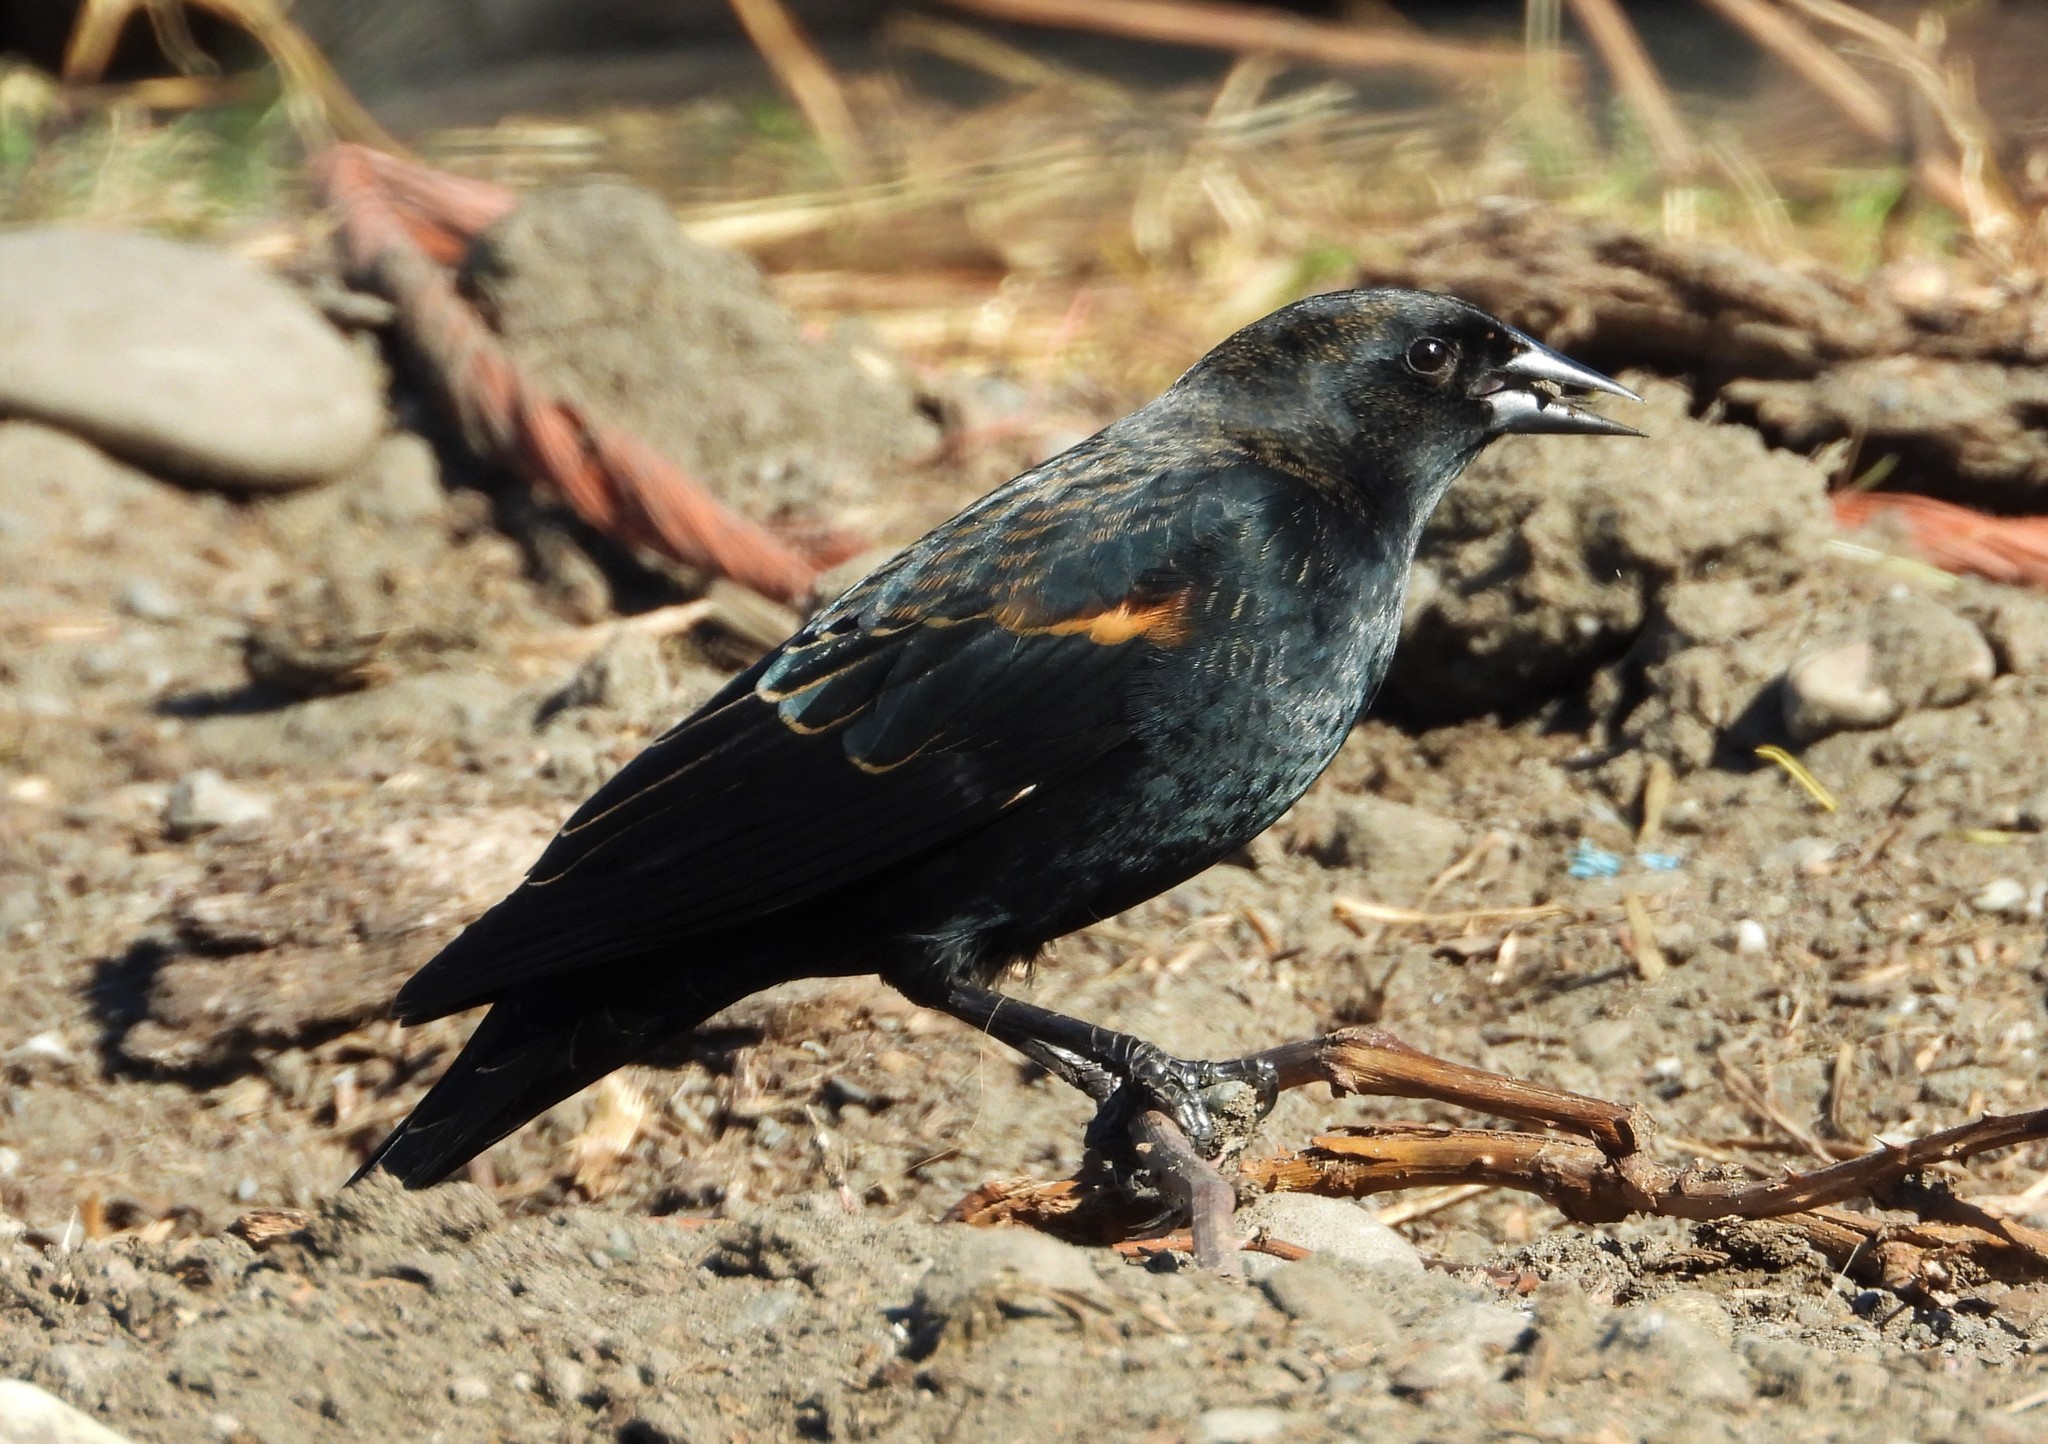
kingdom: Animalia
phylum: Chordata
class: Aves
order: Passeriformes
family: Icteridae
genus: Agelaius
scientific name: Agelaius phoeniceus
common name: Red-winged blackbird
